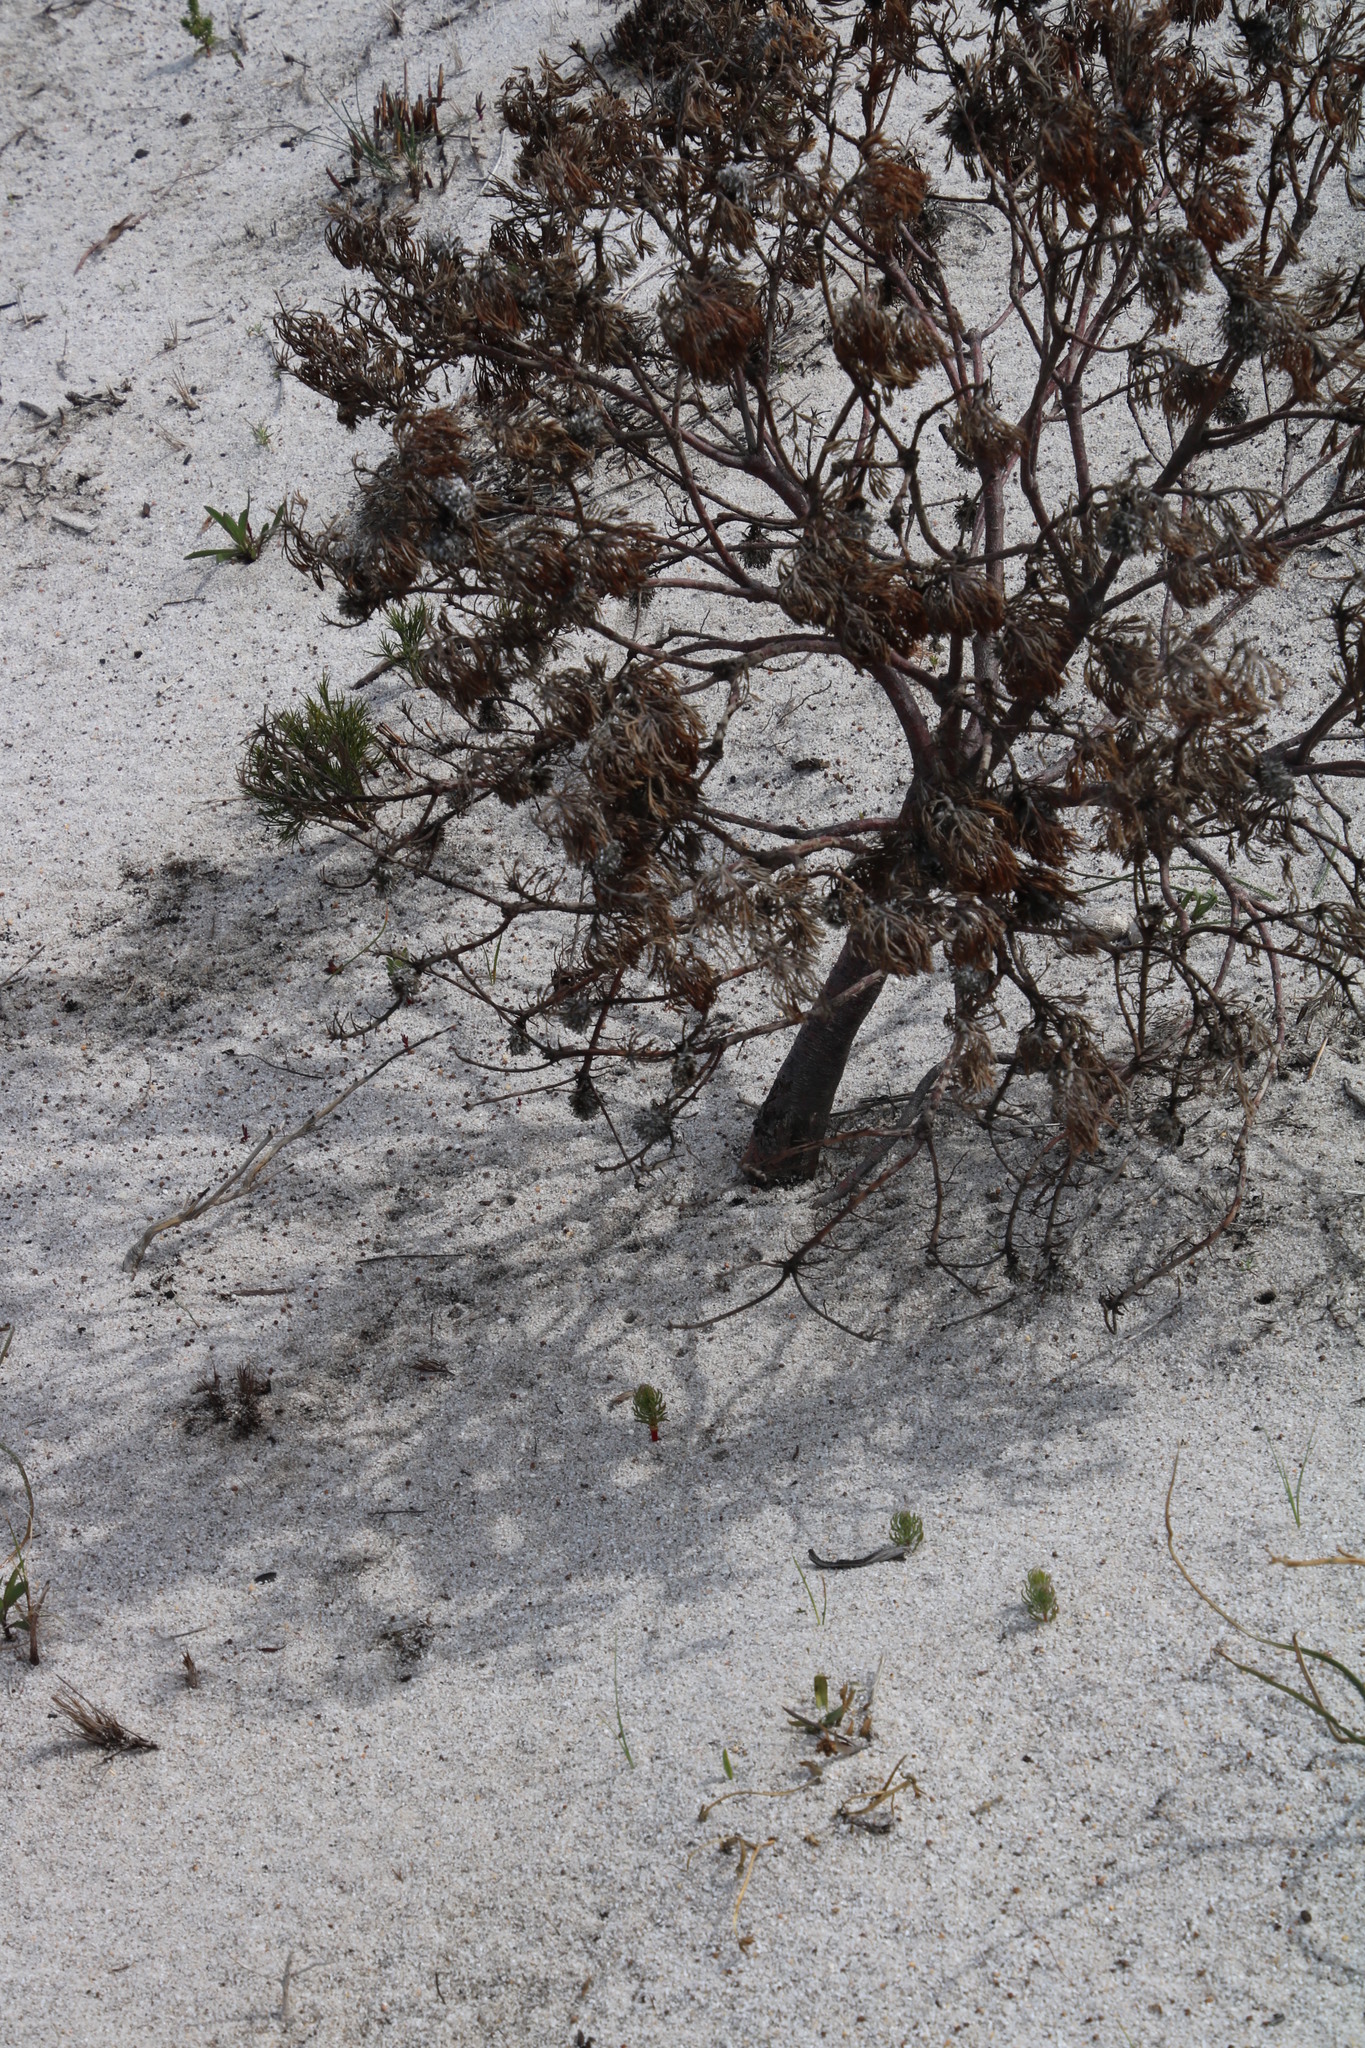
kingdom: Plantae
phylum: Tracheophyta
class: Magnoliopsida
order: Proteales
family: Proteaceae
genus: Serruria
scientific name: Serruria villosa
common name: Golden spiderhead
